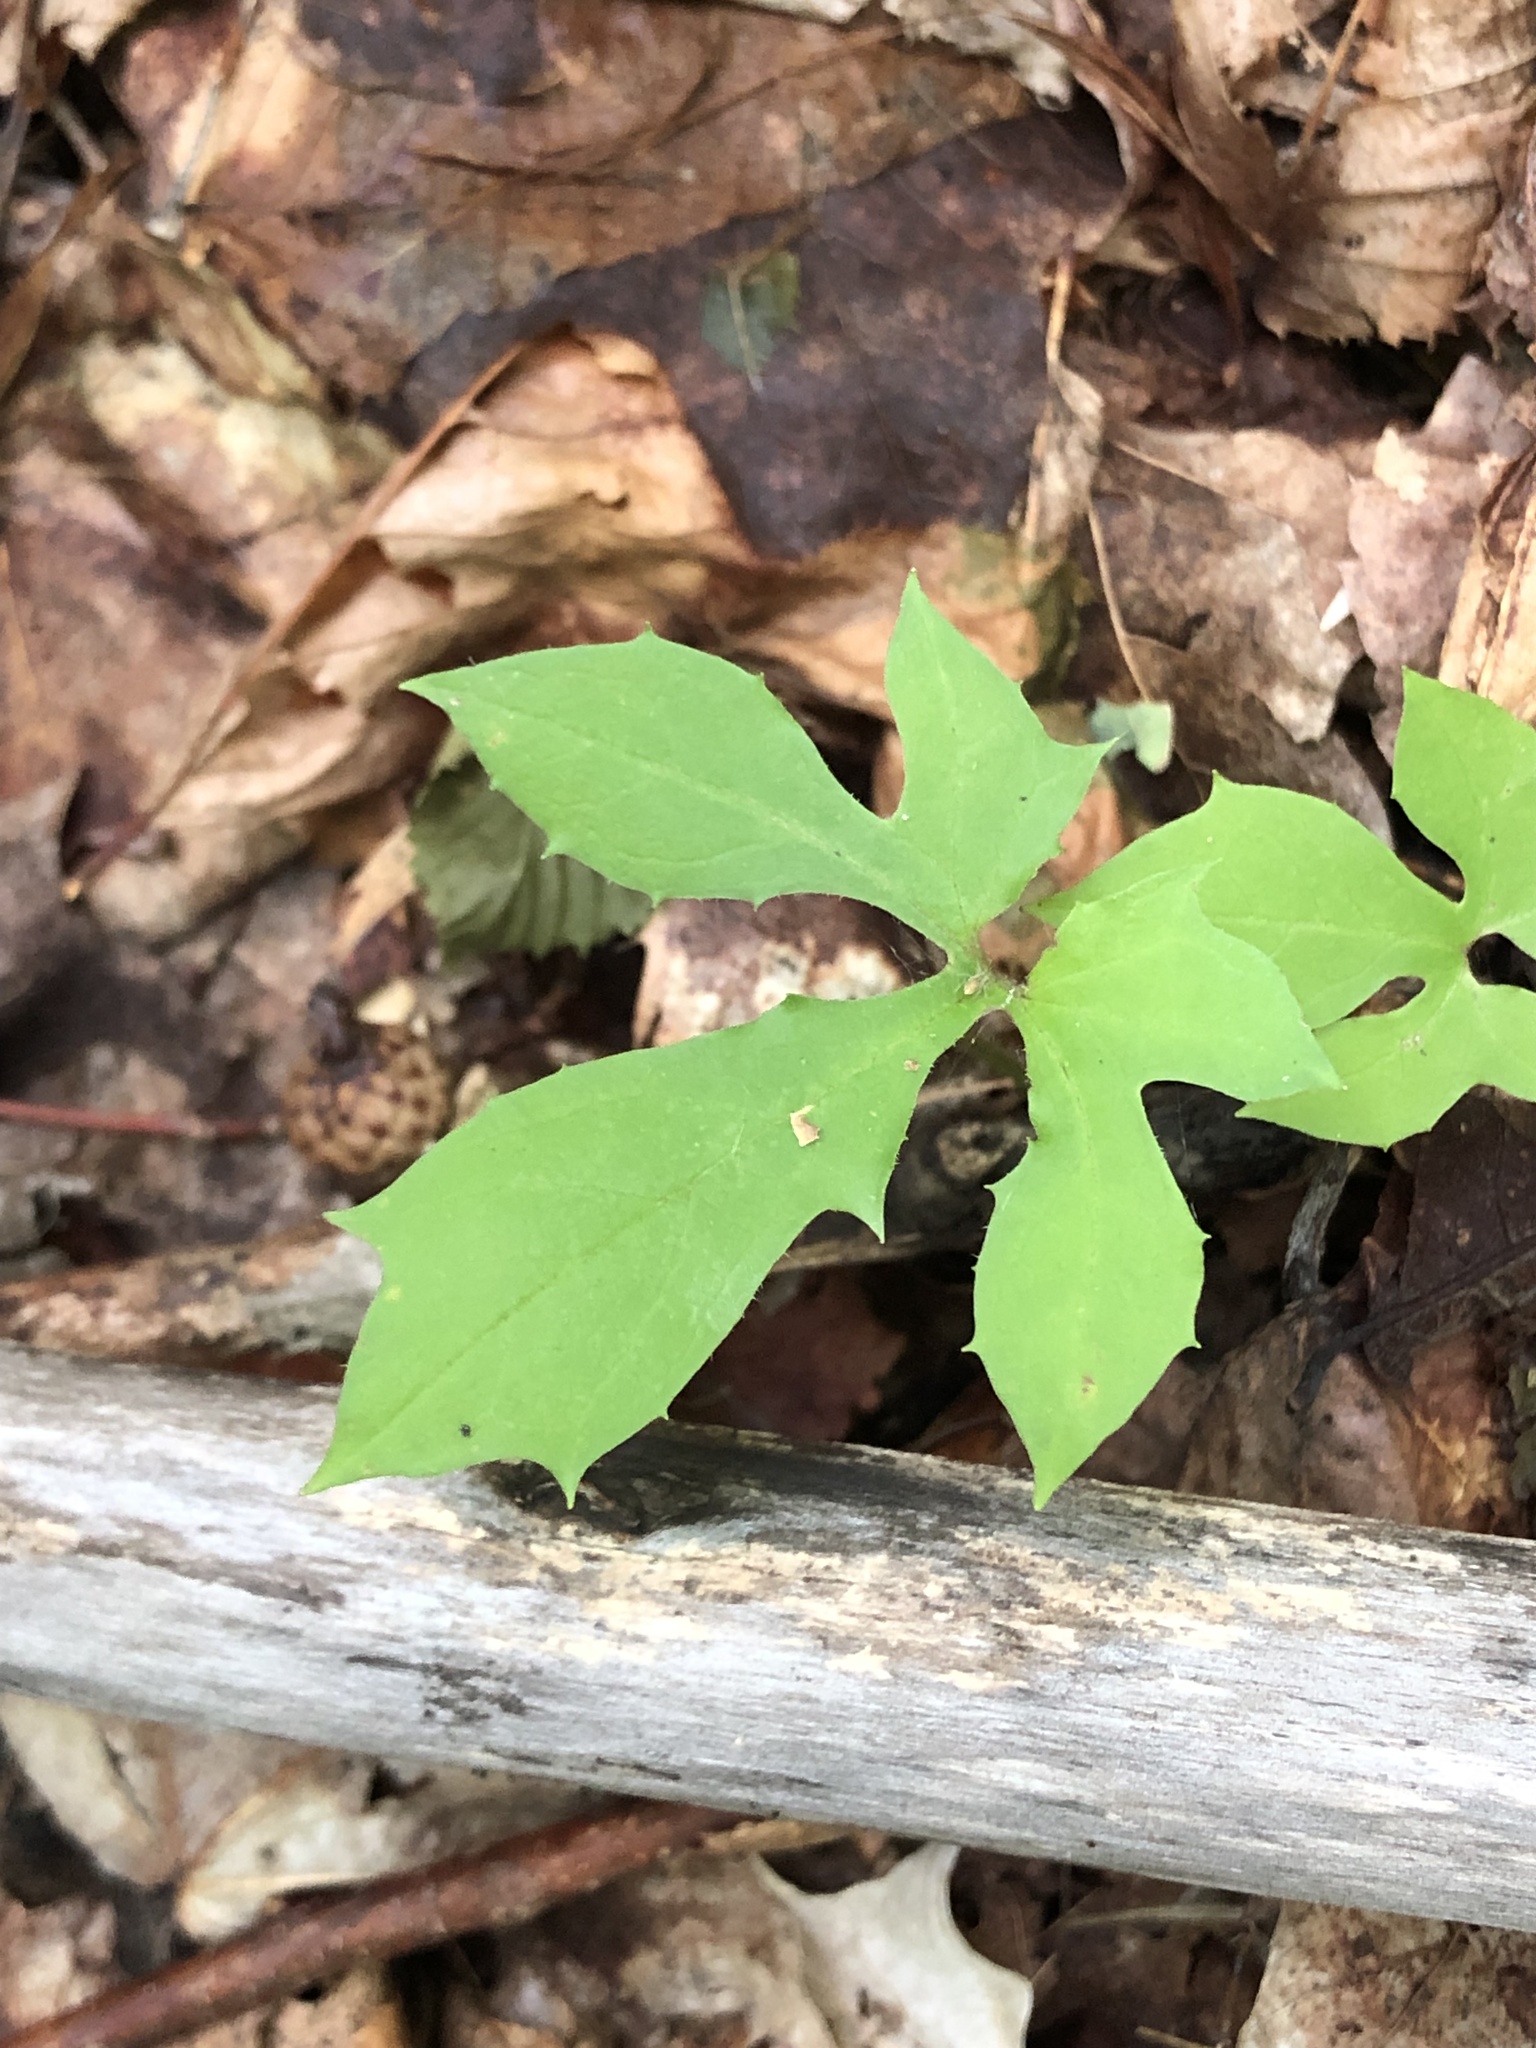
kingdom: Plantae
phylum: Tracheophyta
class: Magnoliopsida
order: Asterales
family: Asteraceae
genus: Nabalus
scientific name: Nabalus altissima
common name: Tall rattlesnakeroot
